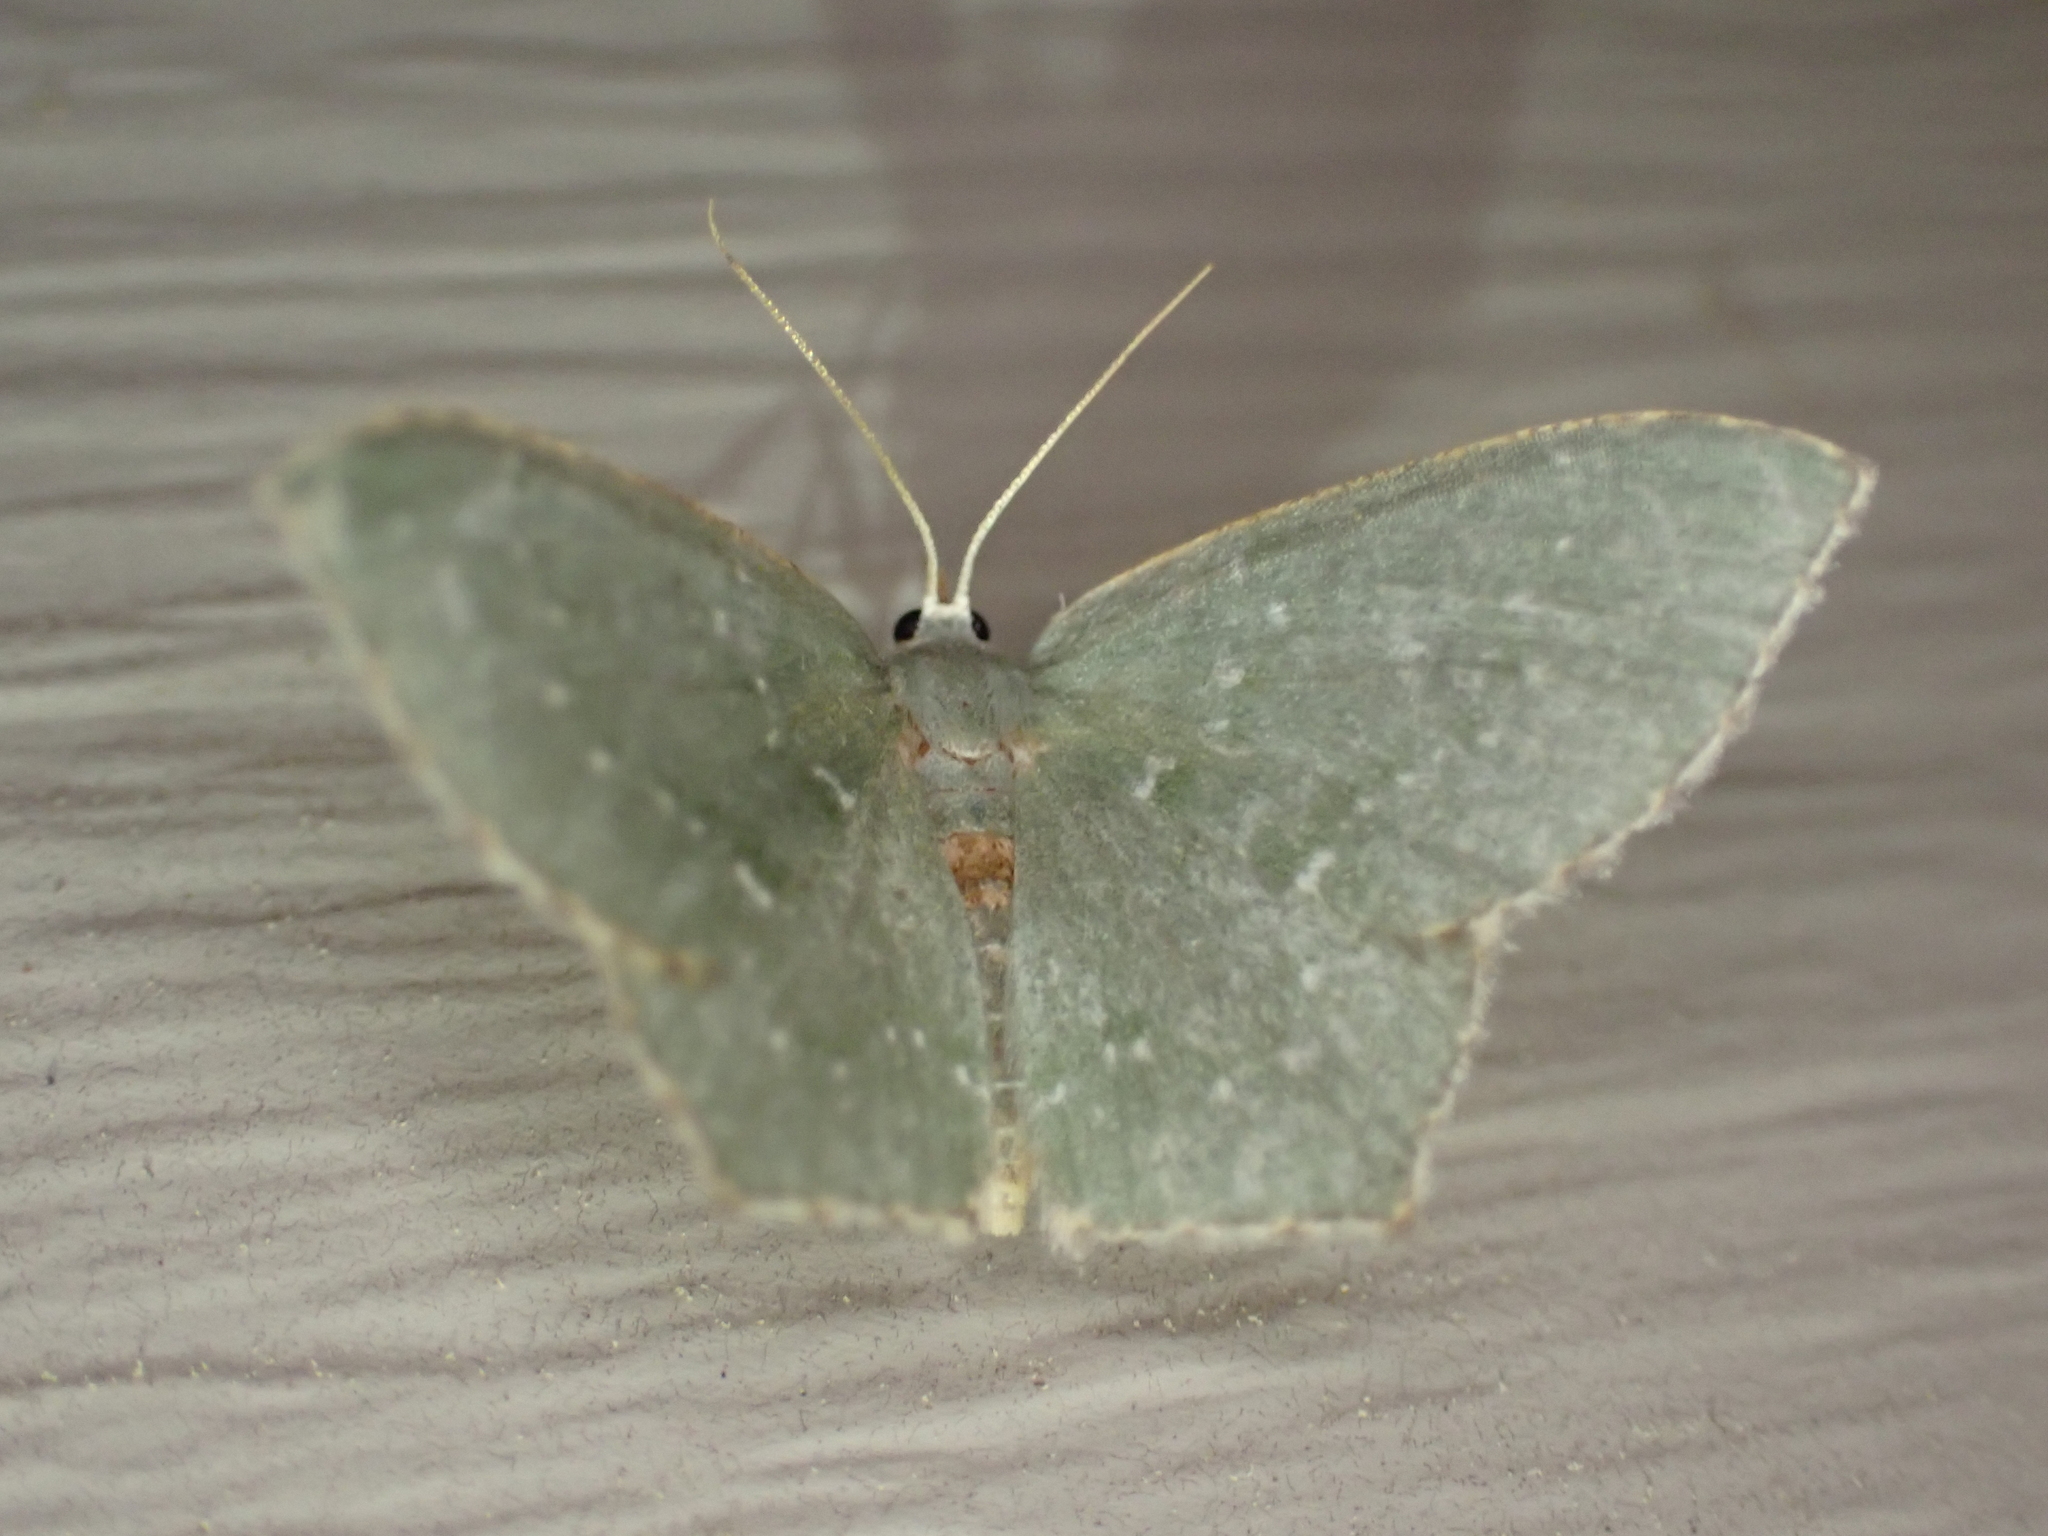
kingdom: Animalia
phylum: Arthropoda
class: Insecta
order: Lepidoptera
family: Geometridae
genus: Chloropteryx
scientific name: Chloropteryx tepperaria
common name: Angle winged emerald moth
